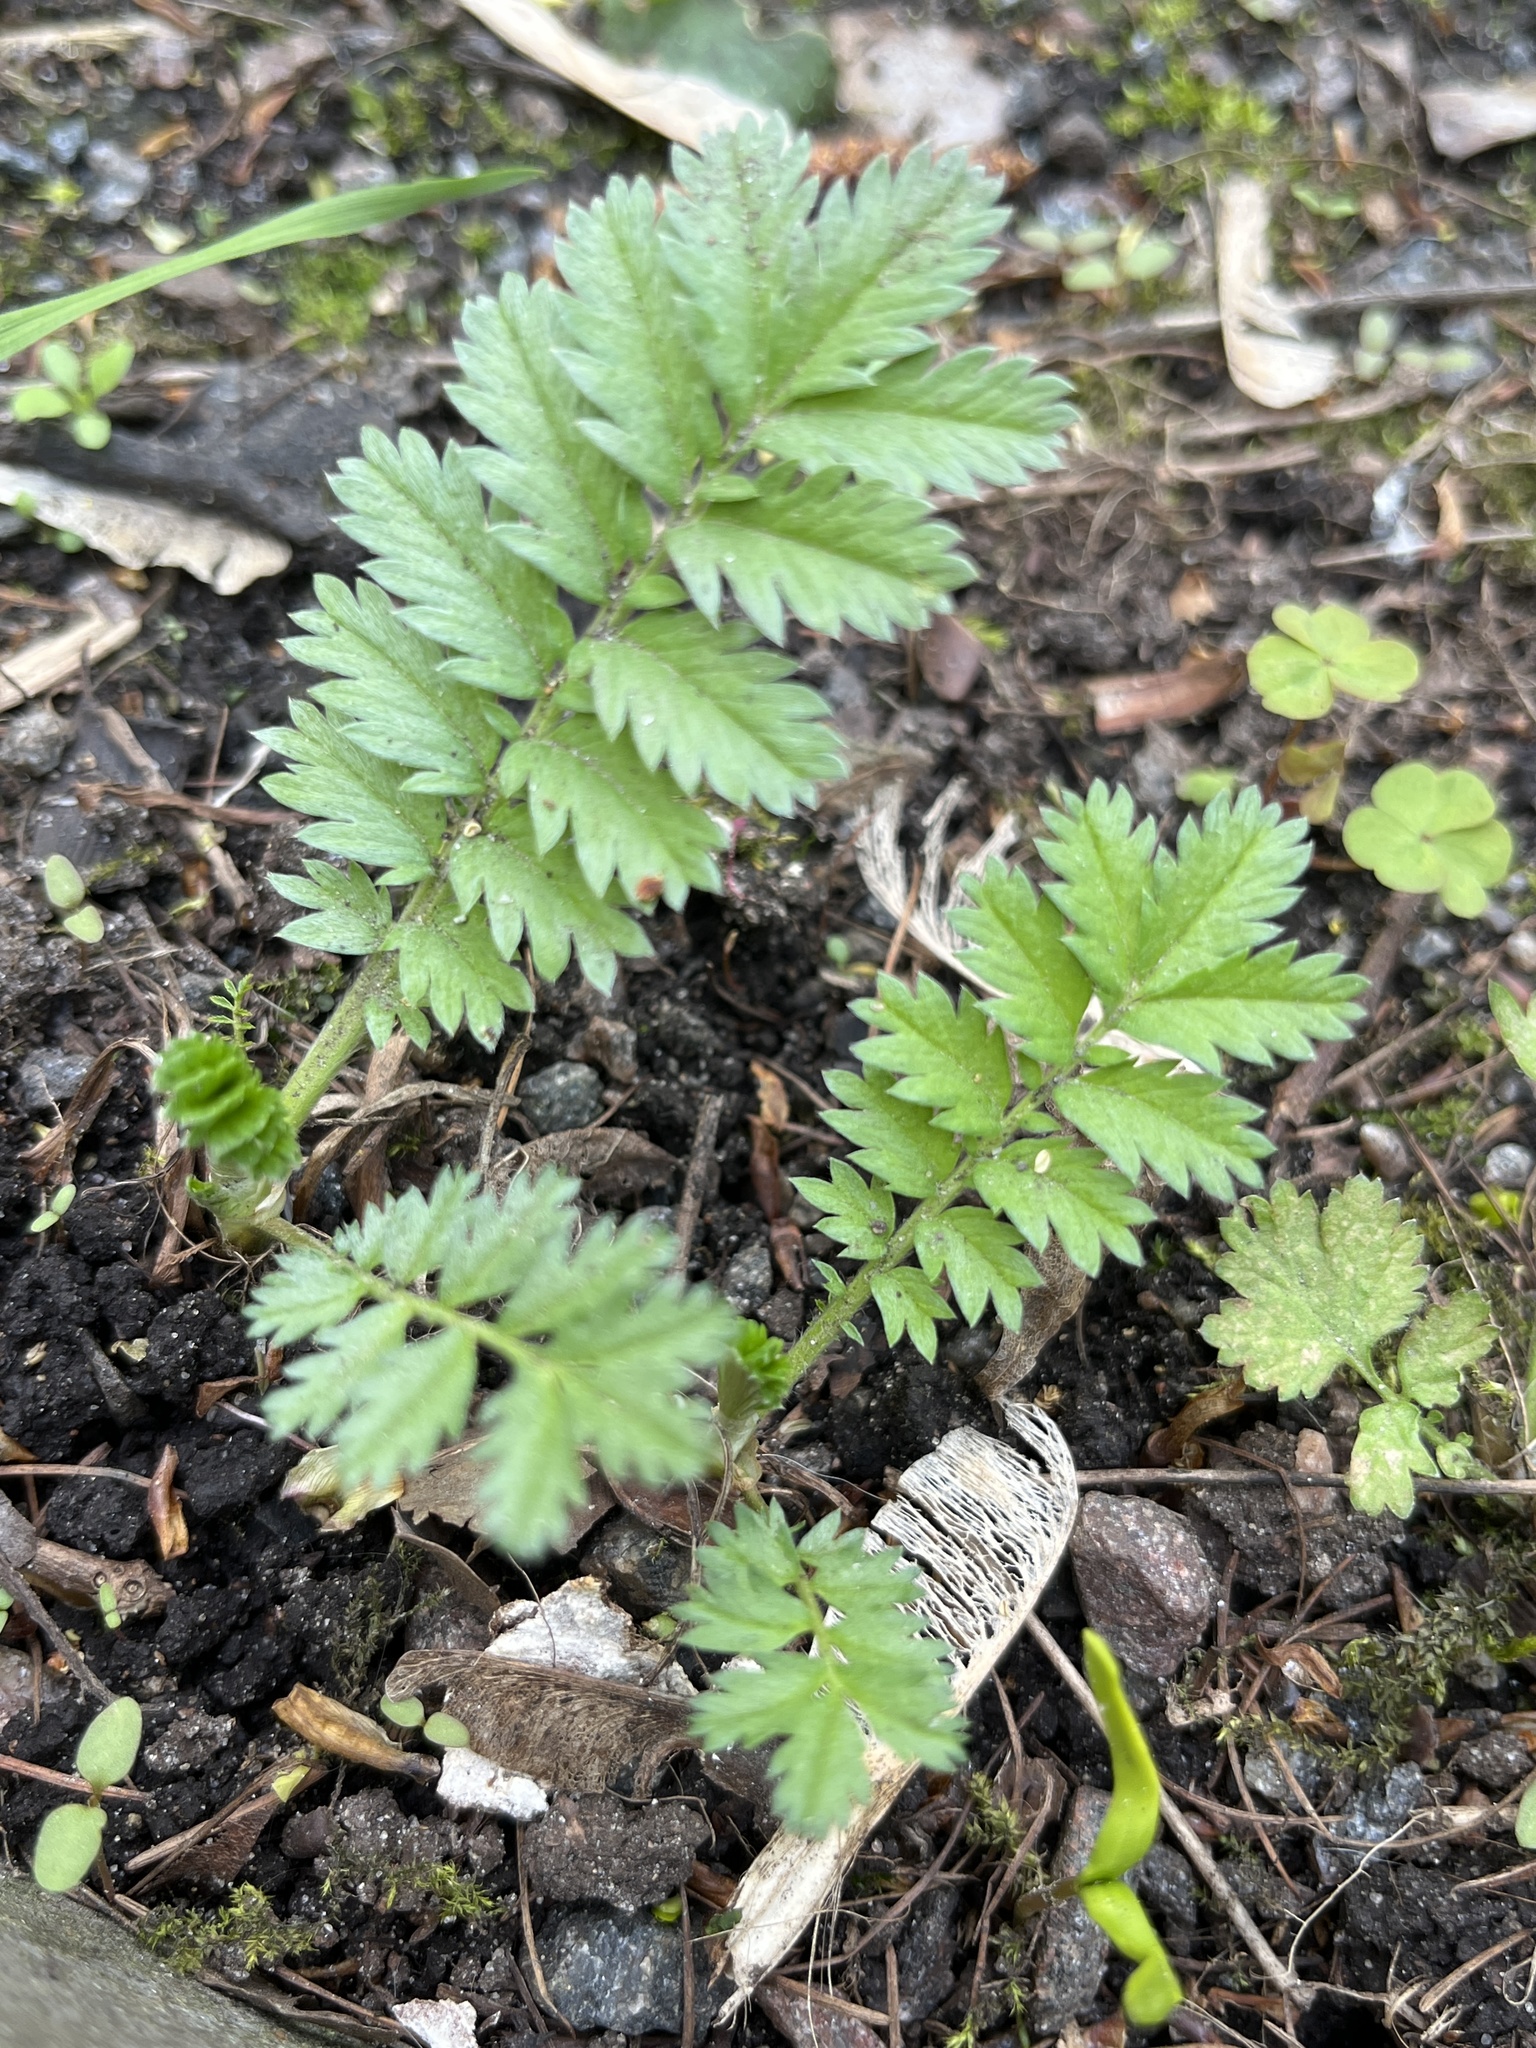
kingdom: Plantae
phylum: Tracheophyta
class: Magnoliopsida
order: Rosales
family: Rosaceae
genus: Argentina
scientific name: Argentina anserina
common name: Common silverweed
